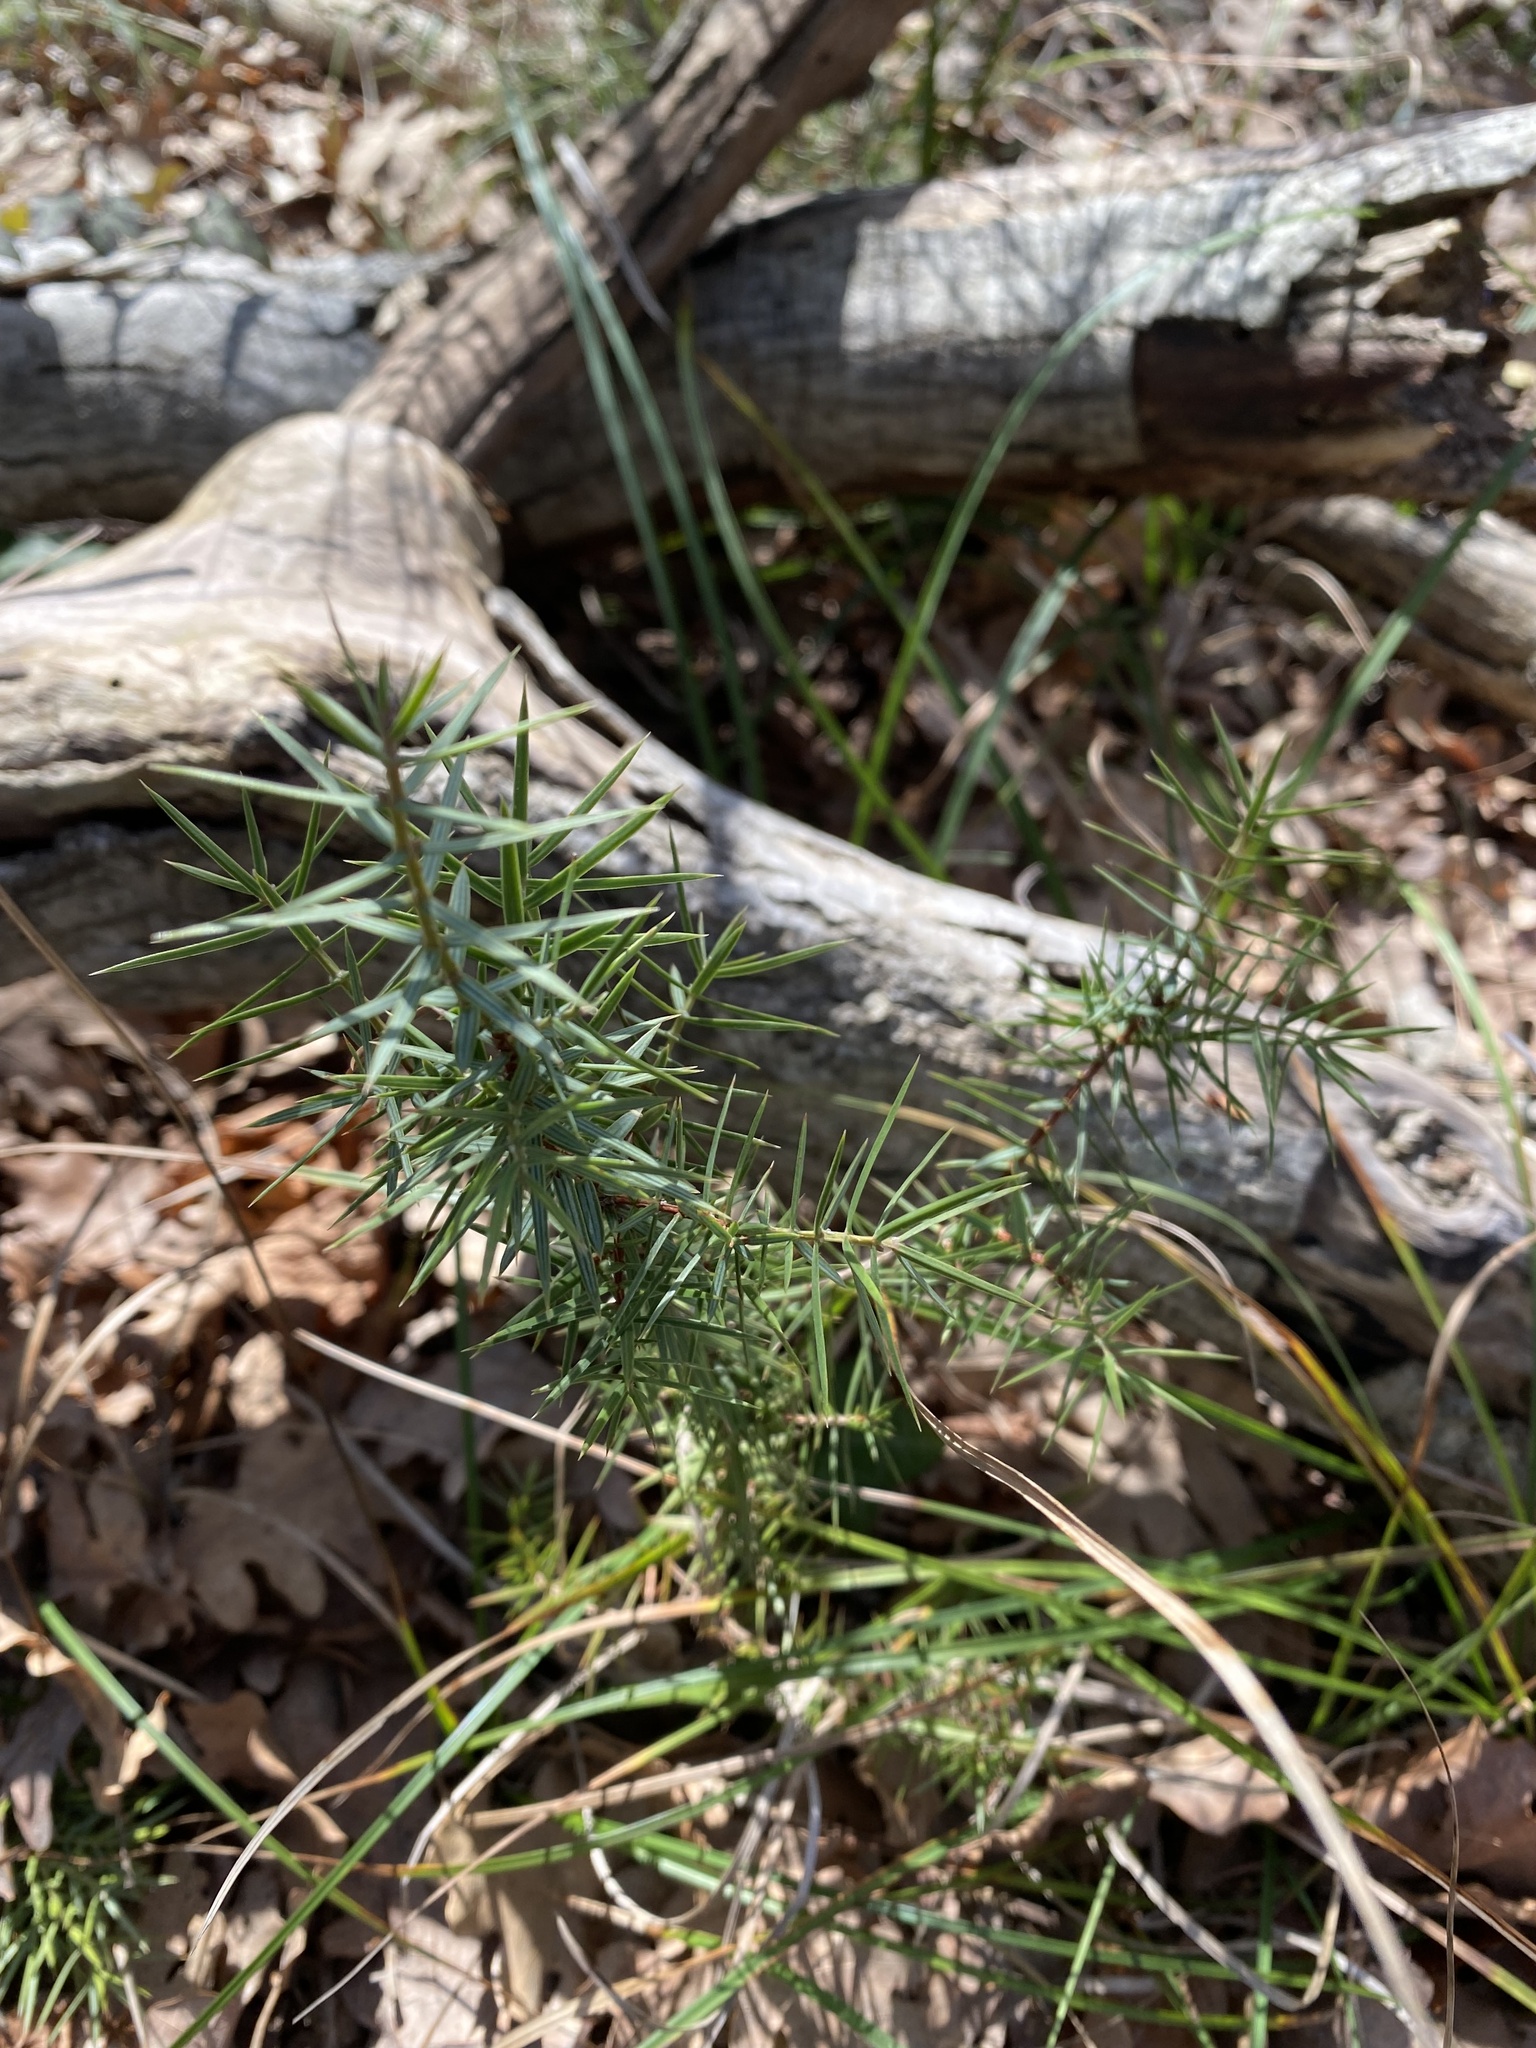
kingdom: Plantae
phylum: Tracheophyta
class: Pinopsida
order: Pinales
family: Cupressaceae
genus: Juniperus
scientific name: Juniperus oxycedrus
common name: Prickly juniper
